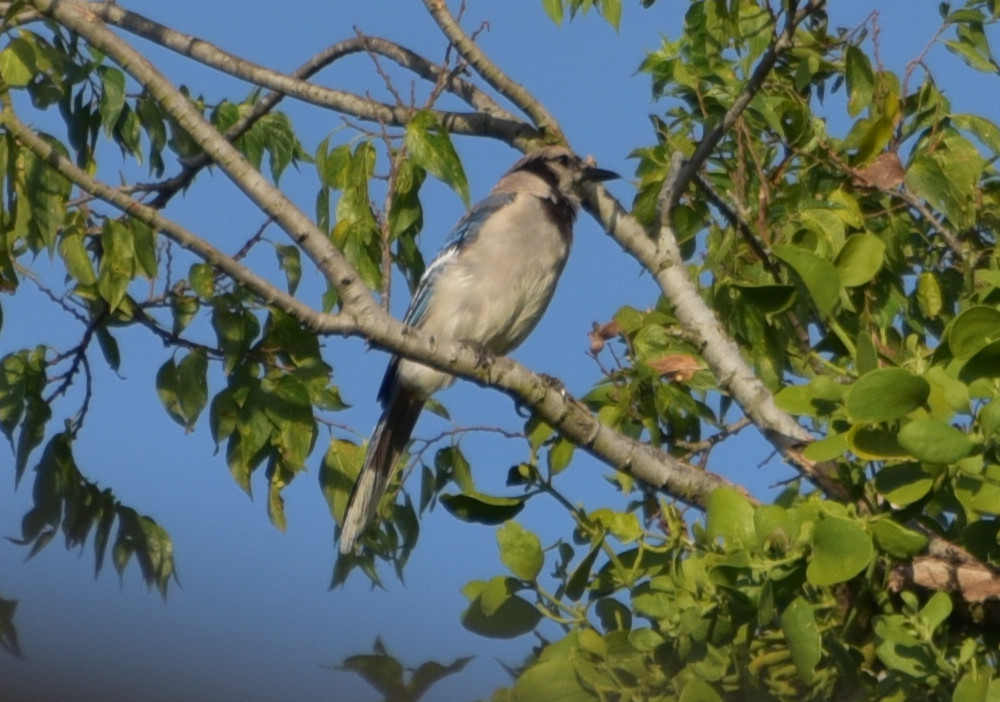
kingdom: Animalia
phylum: Chordata
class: Aves
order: Passeriformes
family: Corvidae
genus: Cyanocitta
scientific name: Cyanocitta cristata
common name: Blue jay
